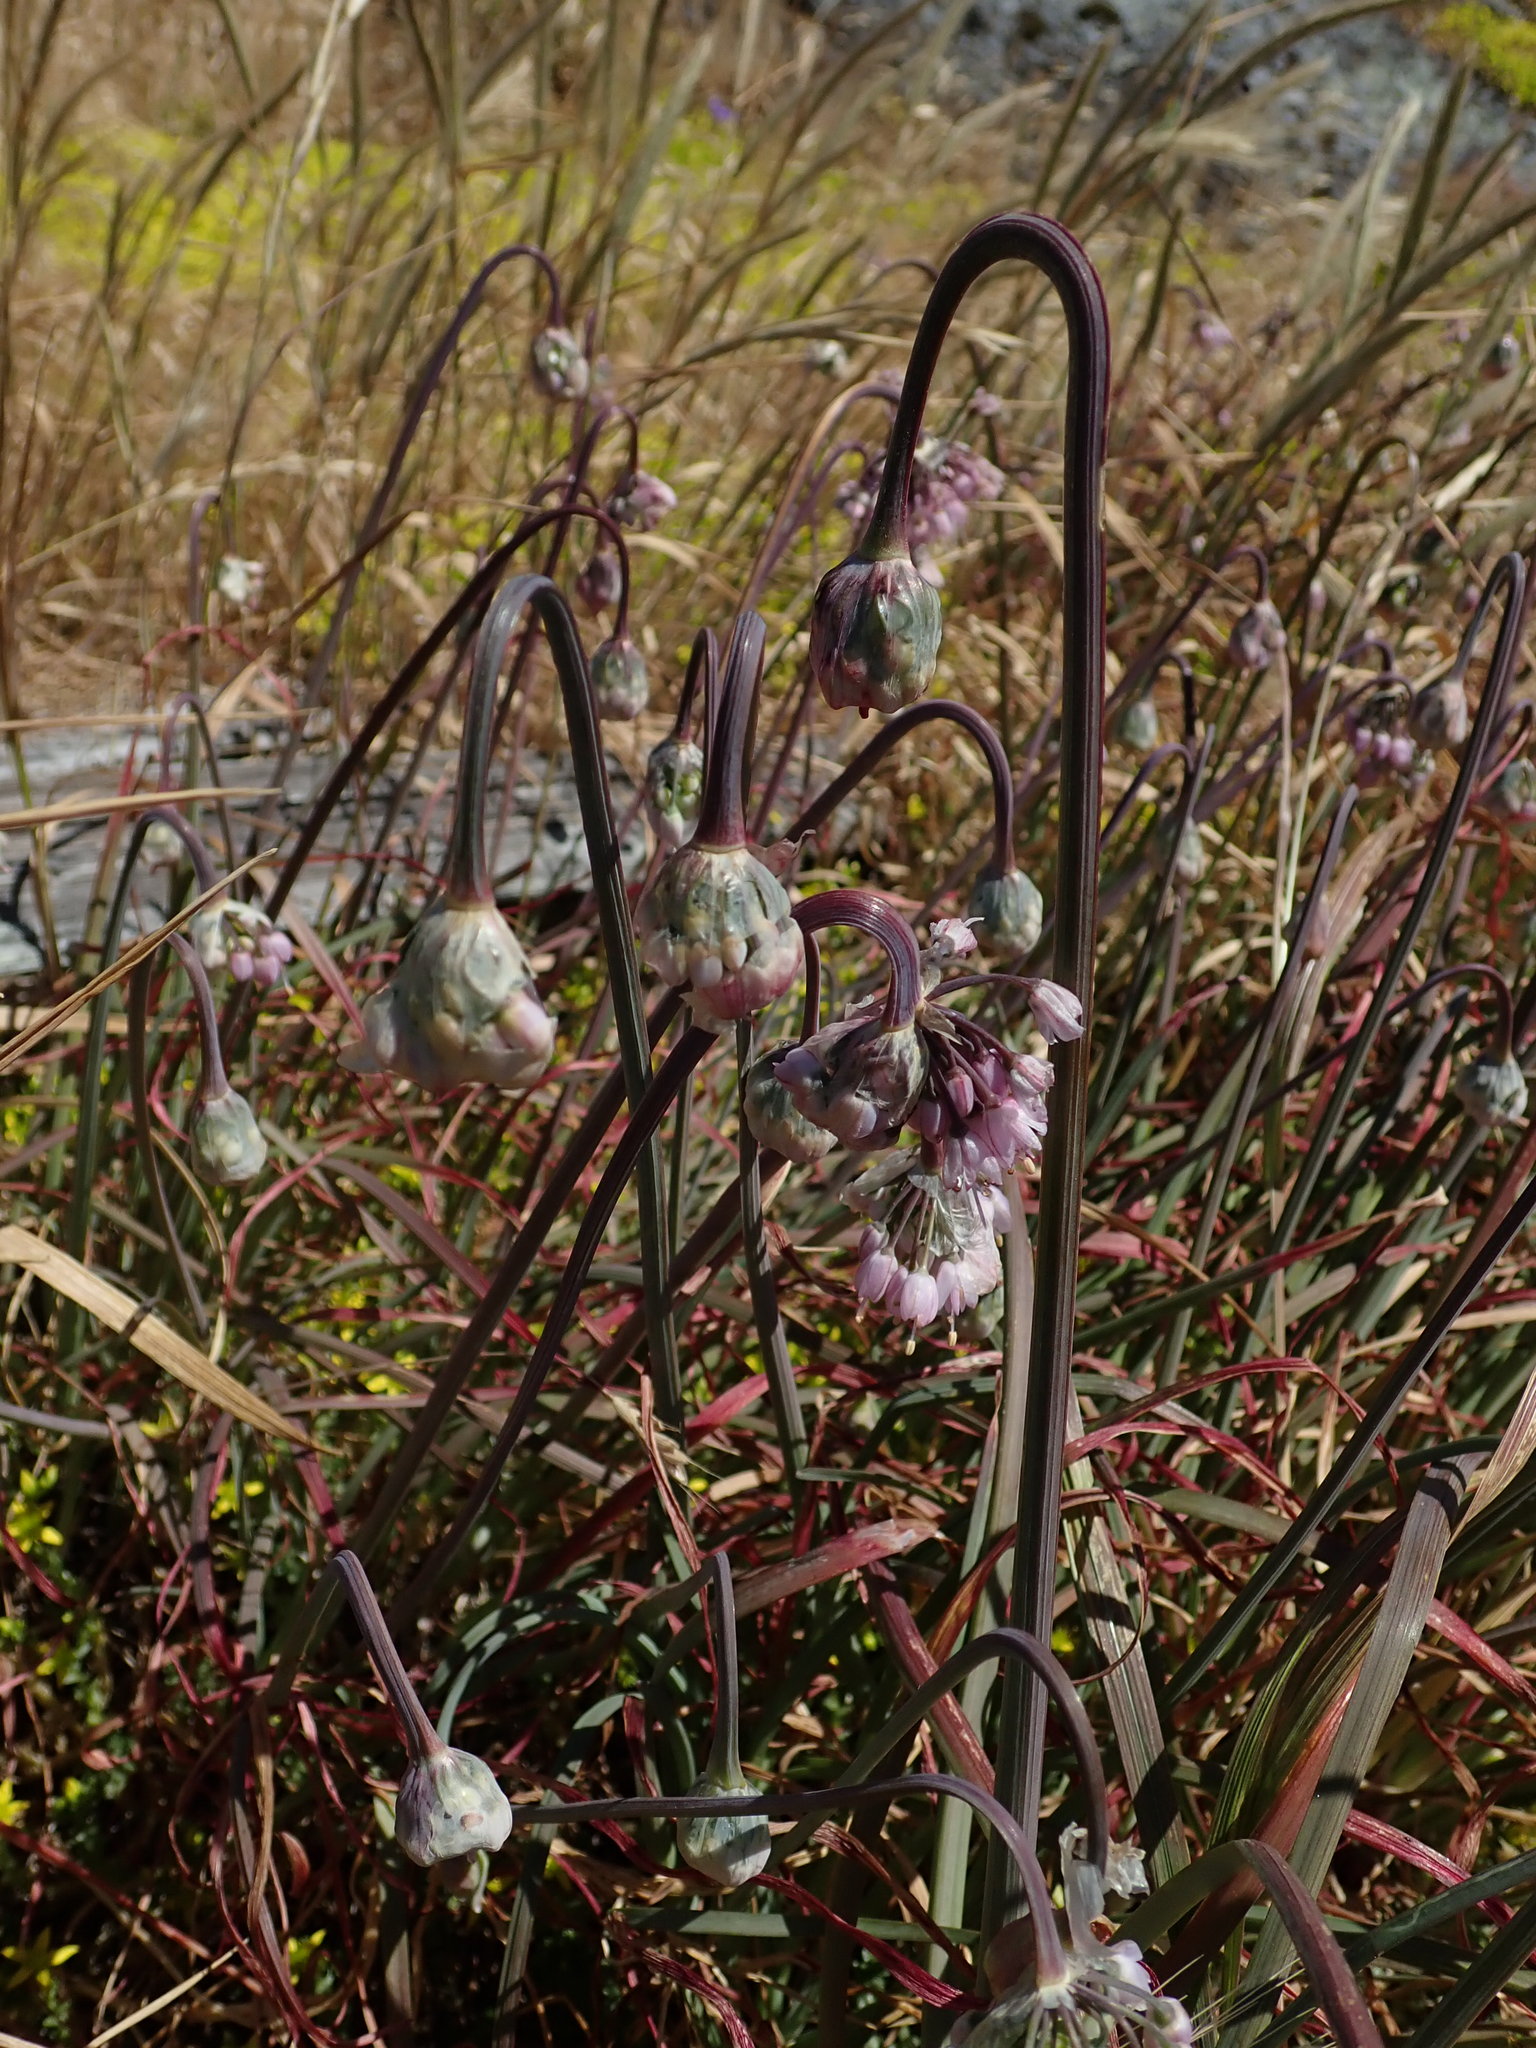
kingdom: Plantae
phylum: Tracheophyta
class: Liliopsida
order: Asparagales
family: Amaryllidaceae
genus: Allium
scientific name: Allium cernuum
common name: Nodding onion
